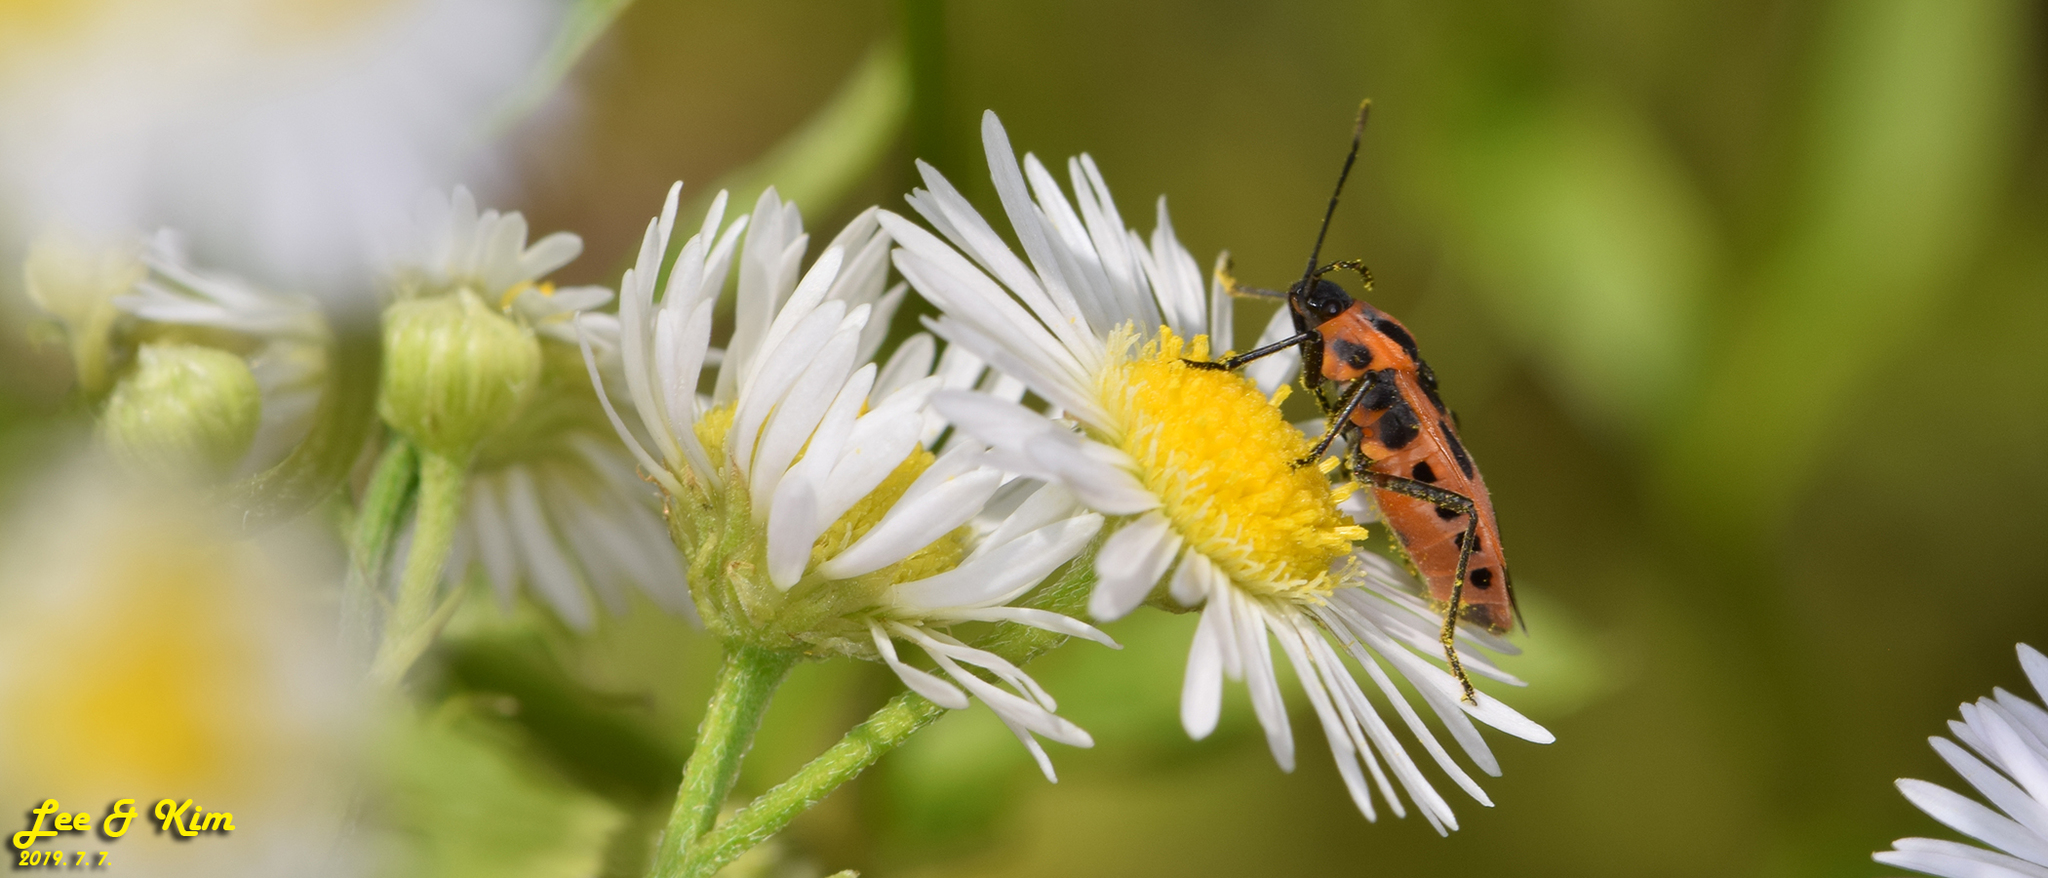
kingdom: Animalia
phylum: Arthropoda
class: Insecta
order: Hemiptera
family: Lygaeidae
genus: Tropidothorax
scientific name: Tropidothorax cruciger
